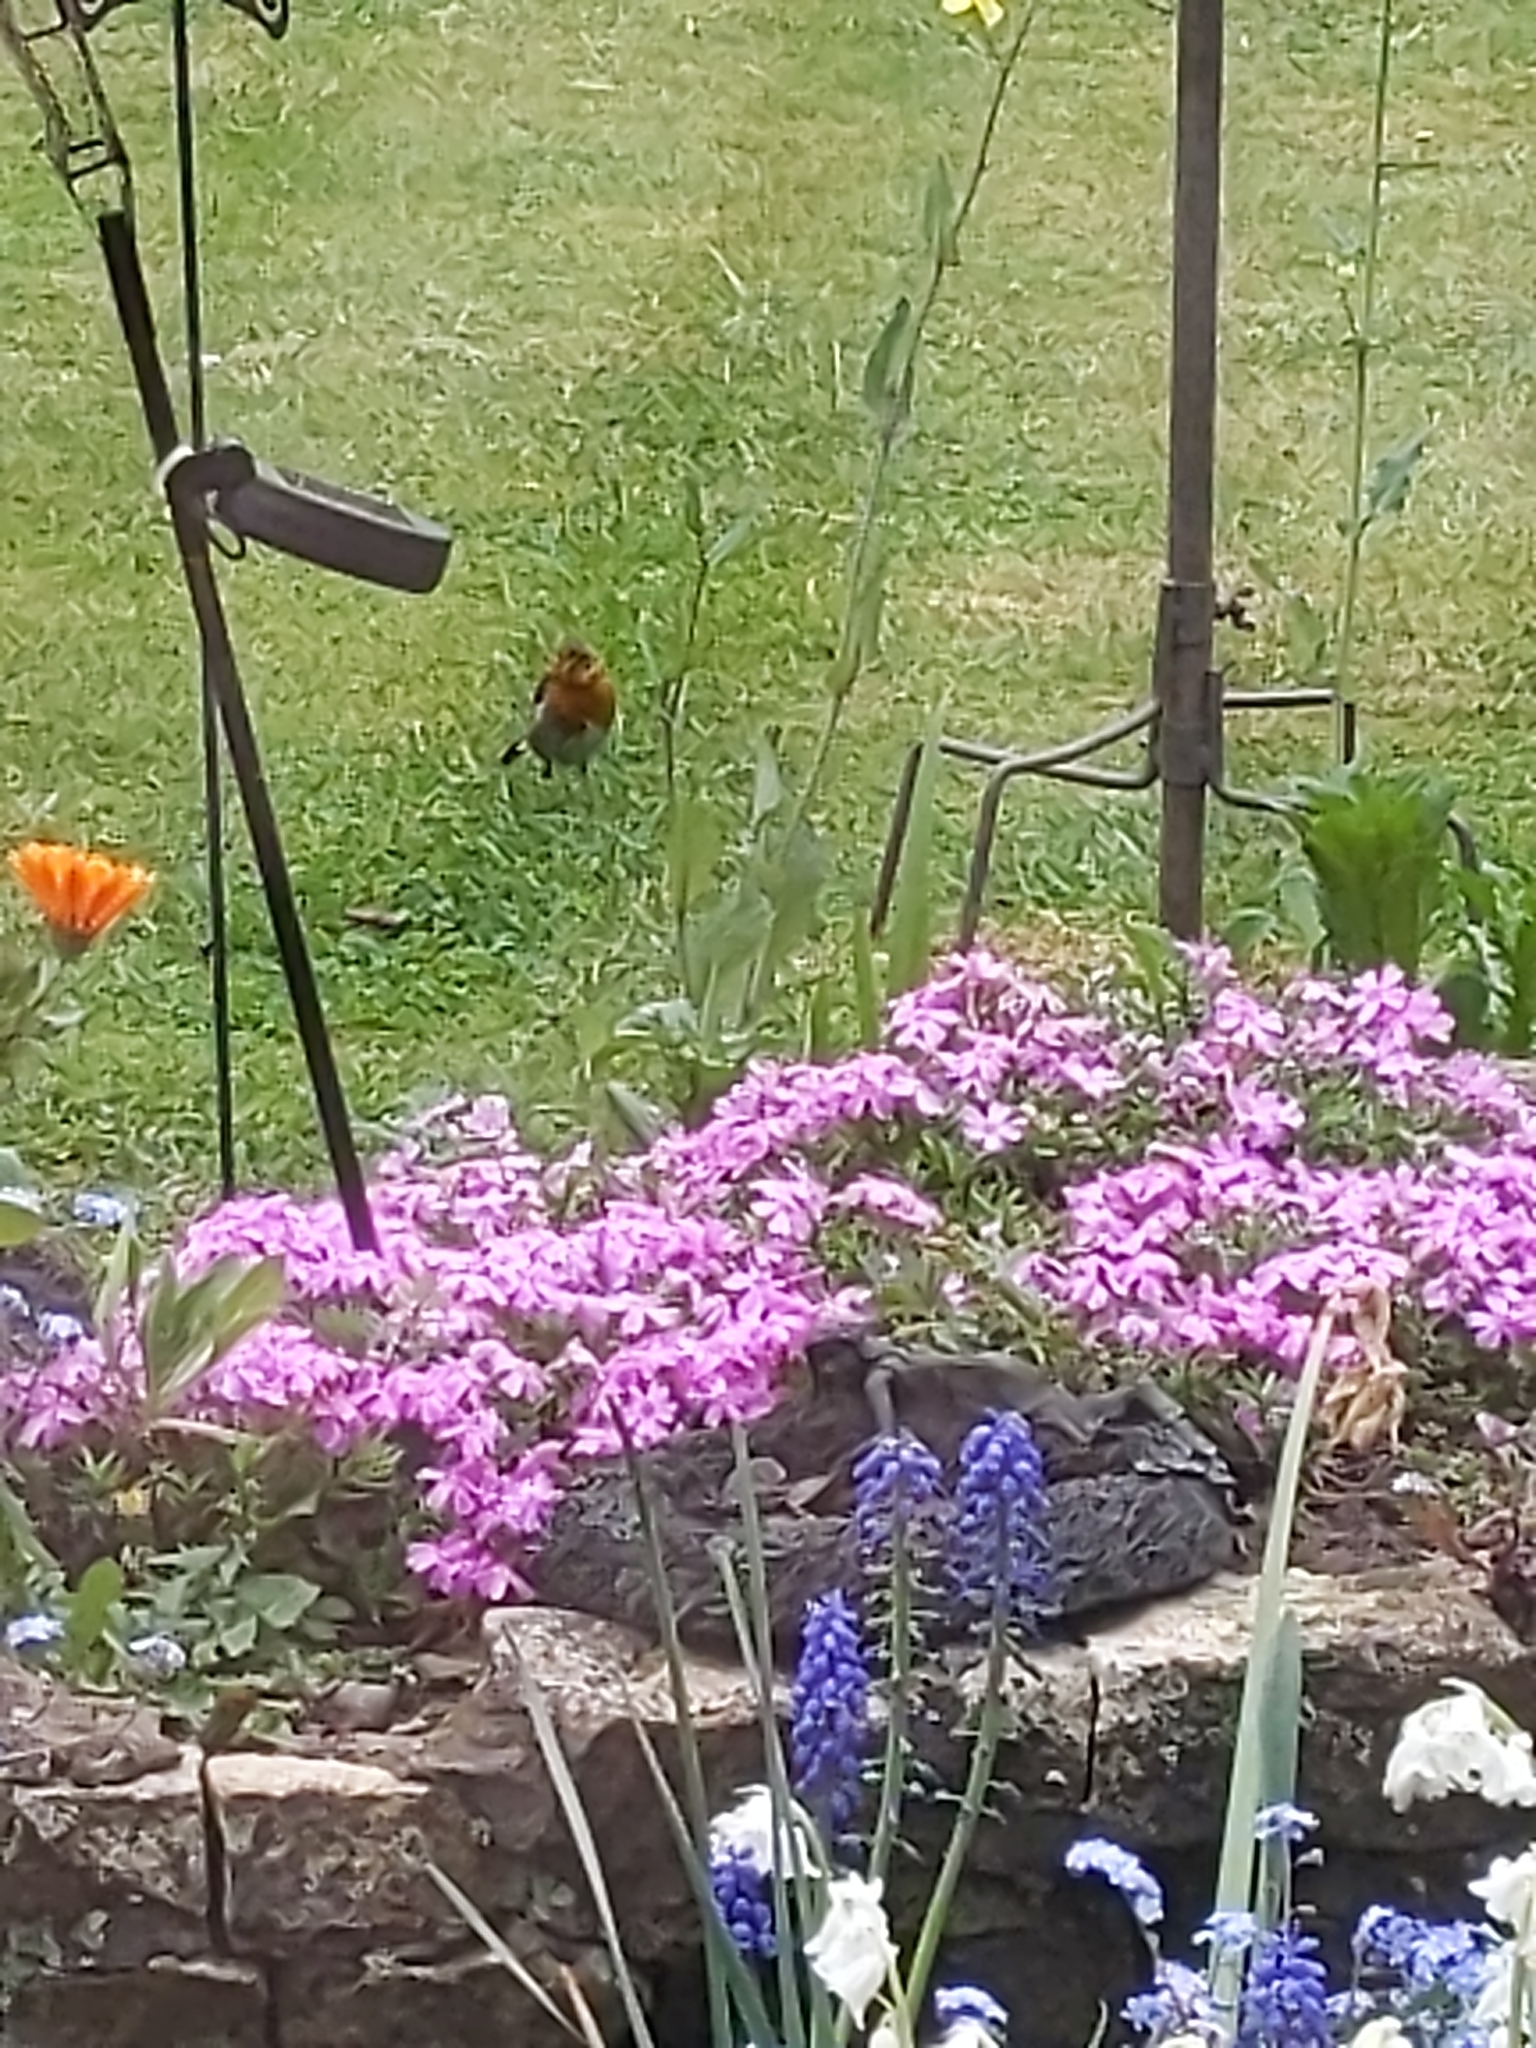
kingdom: Animalia
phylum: Chordata
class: Aves
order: Passeriformes
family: Muscicapidae
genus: Erithacus
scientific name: Erithacus rubecula
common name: European robin
